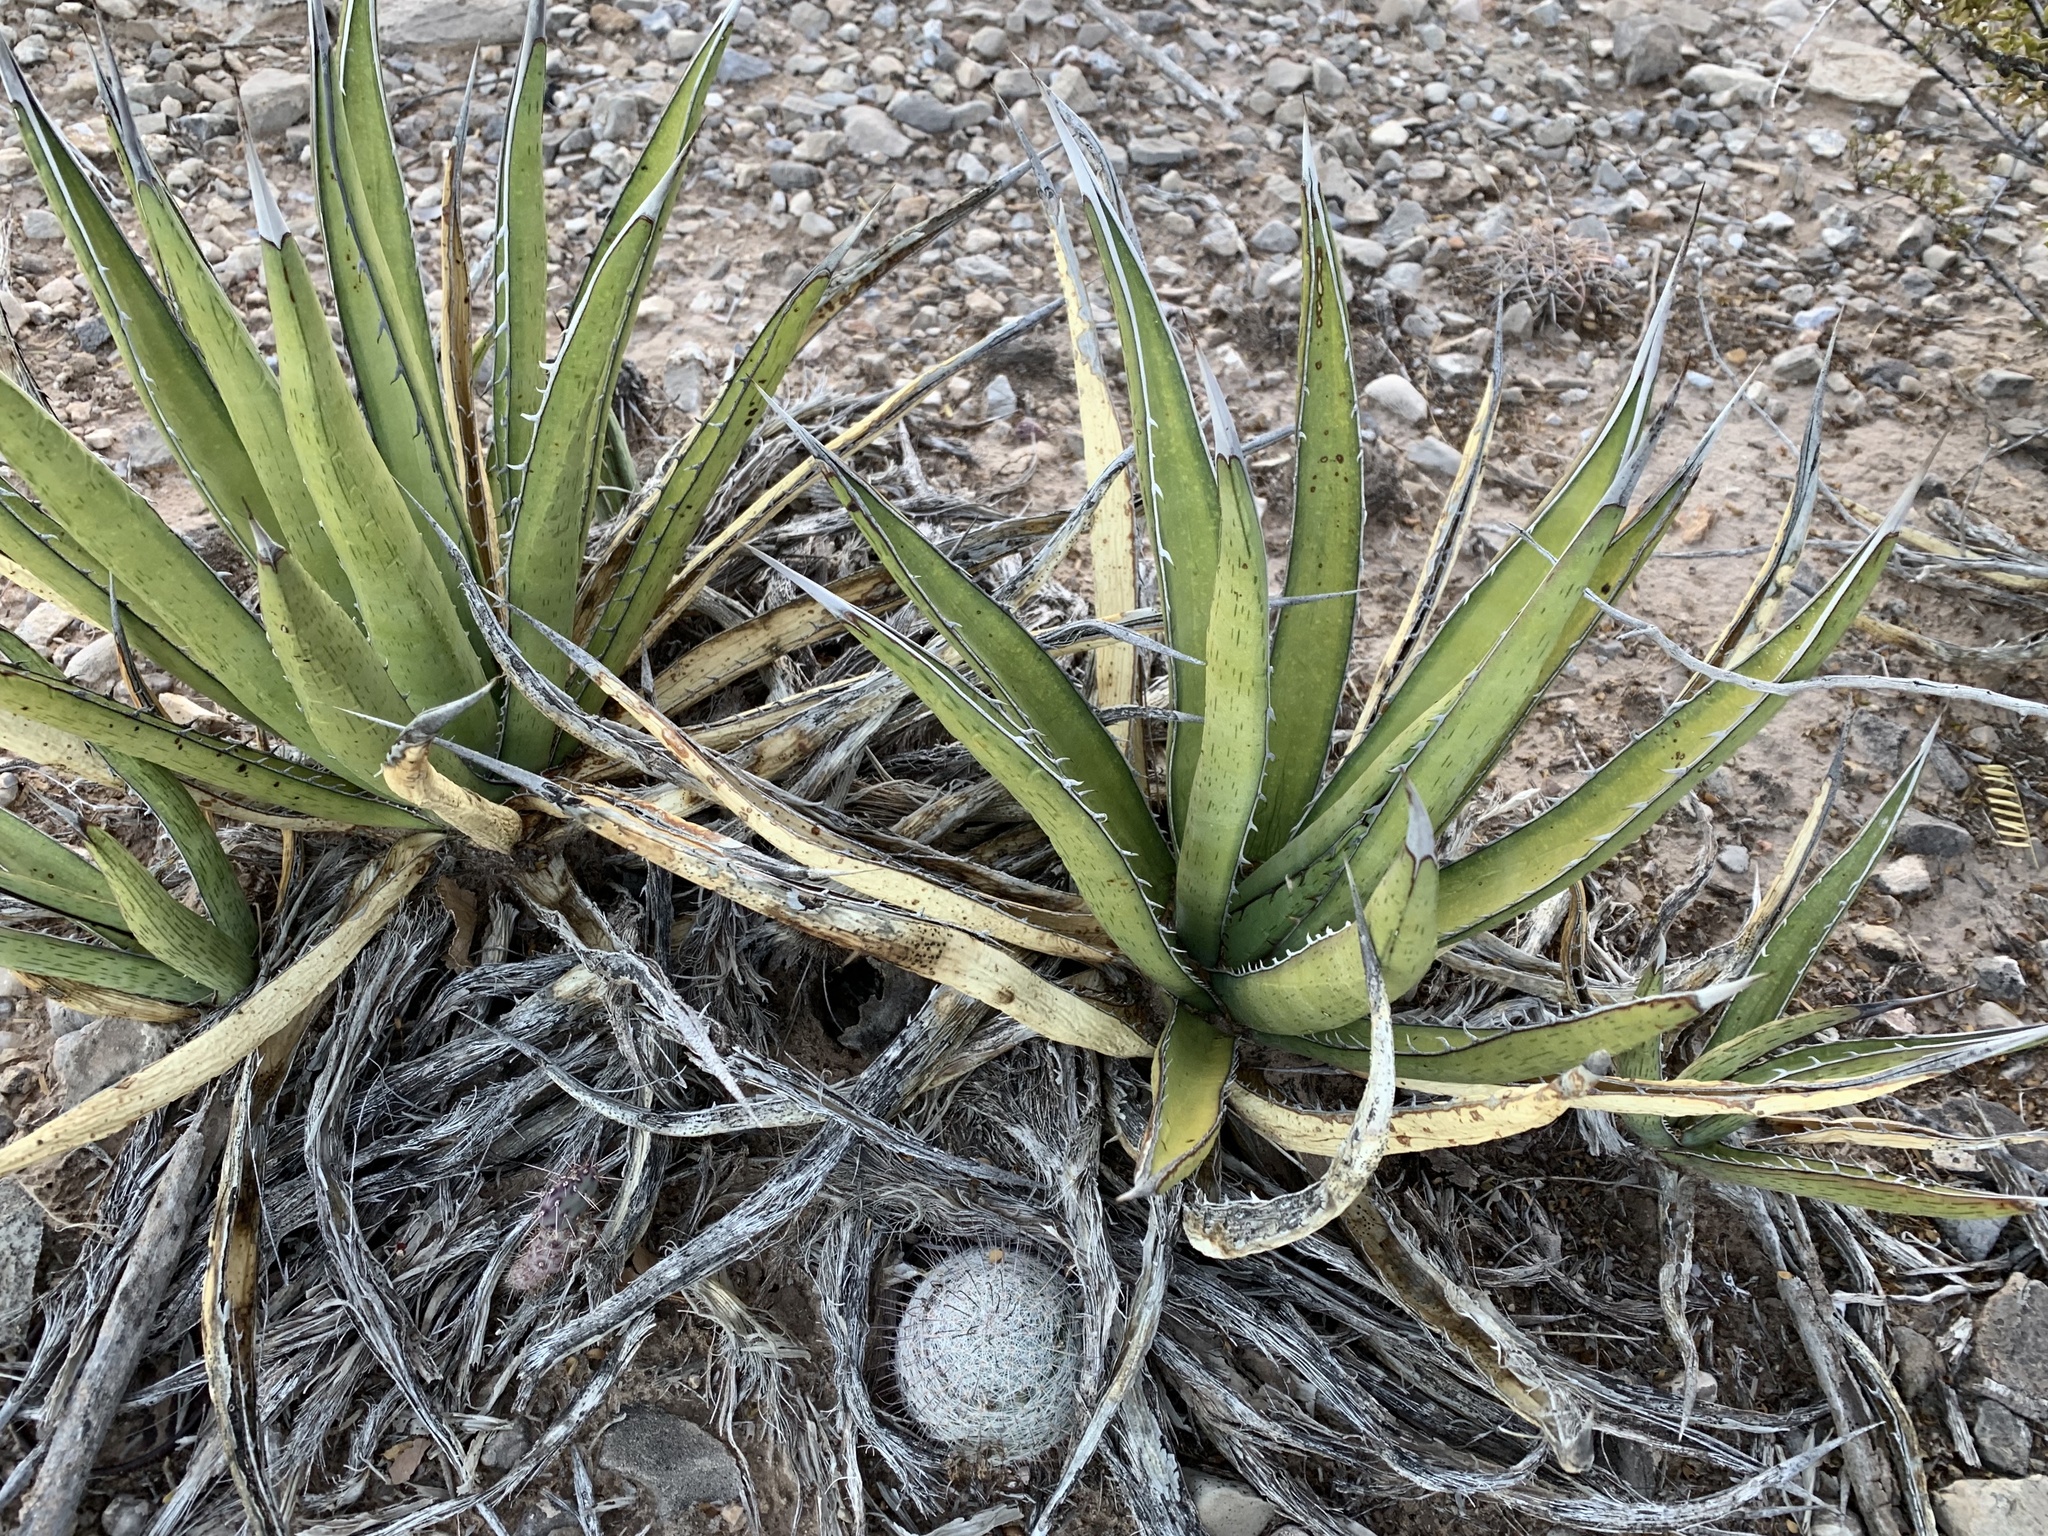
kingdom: Plantae
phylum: Tracheophyta
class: Liliopsida
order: Asparagales
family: Asparagaceae
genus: Agave
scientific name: Agave lechuguilla
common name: Lecheguilla agave
